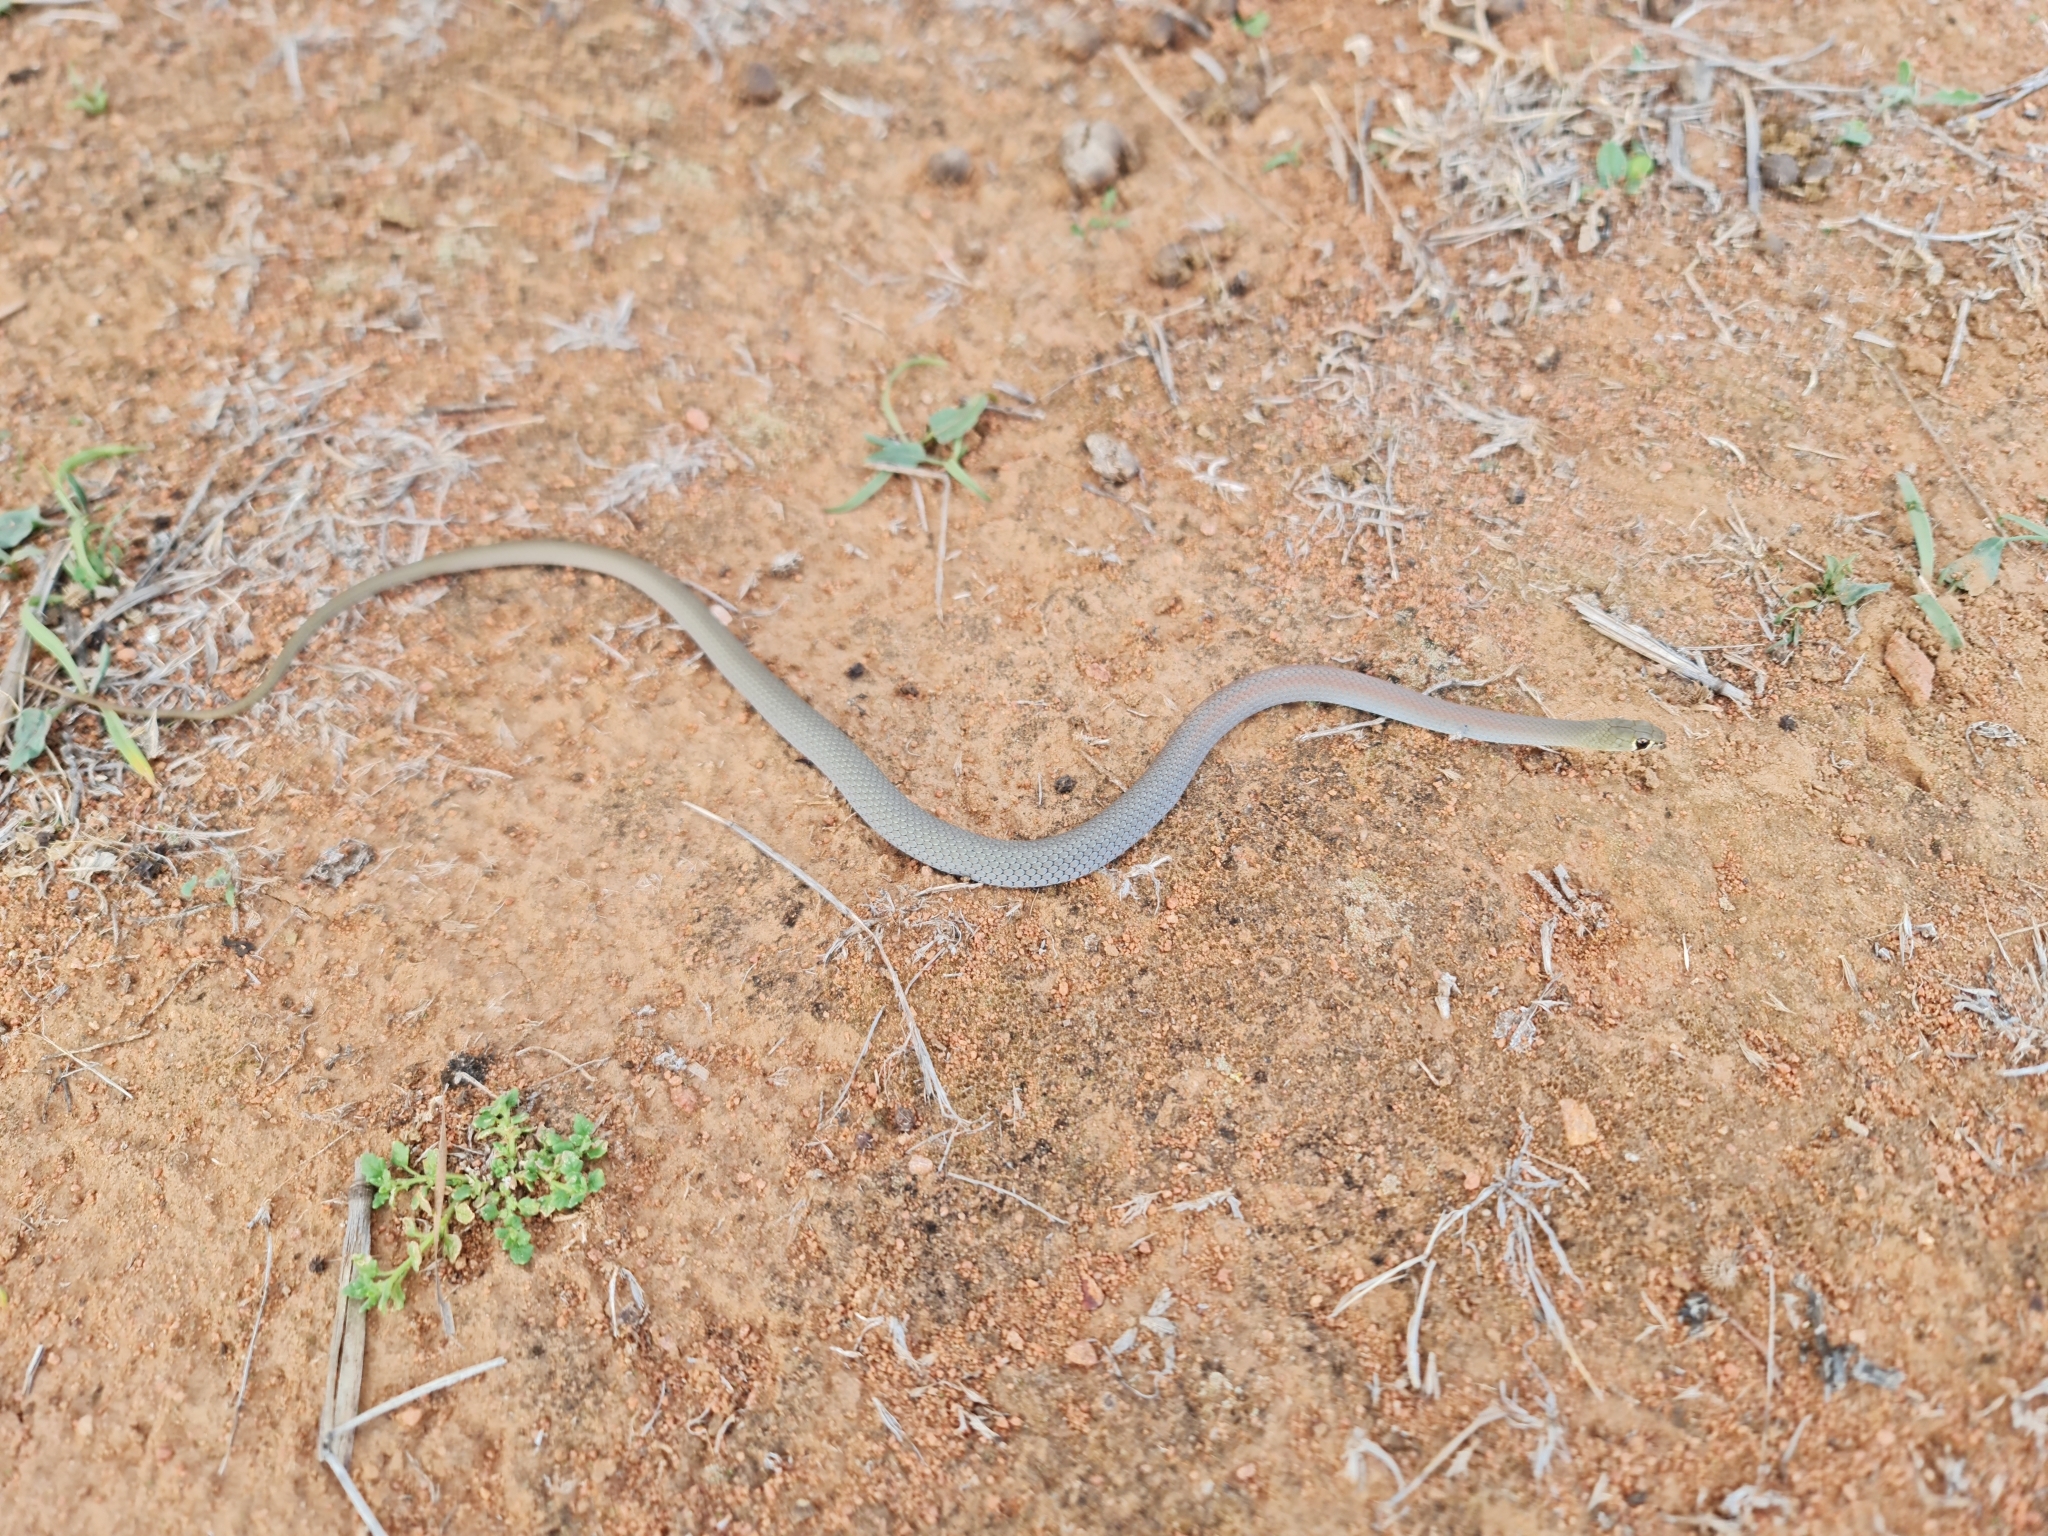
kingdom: Animalia
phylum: Chordata
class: Squamata
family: Elapidae
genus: Demansia
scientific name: Demansia psammophis
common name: Yellow-faced whip snake
